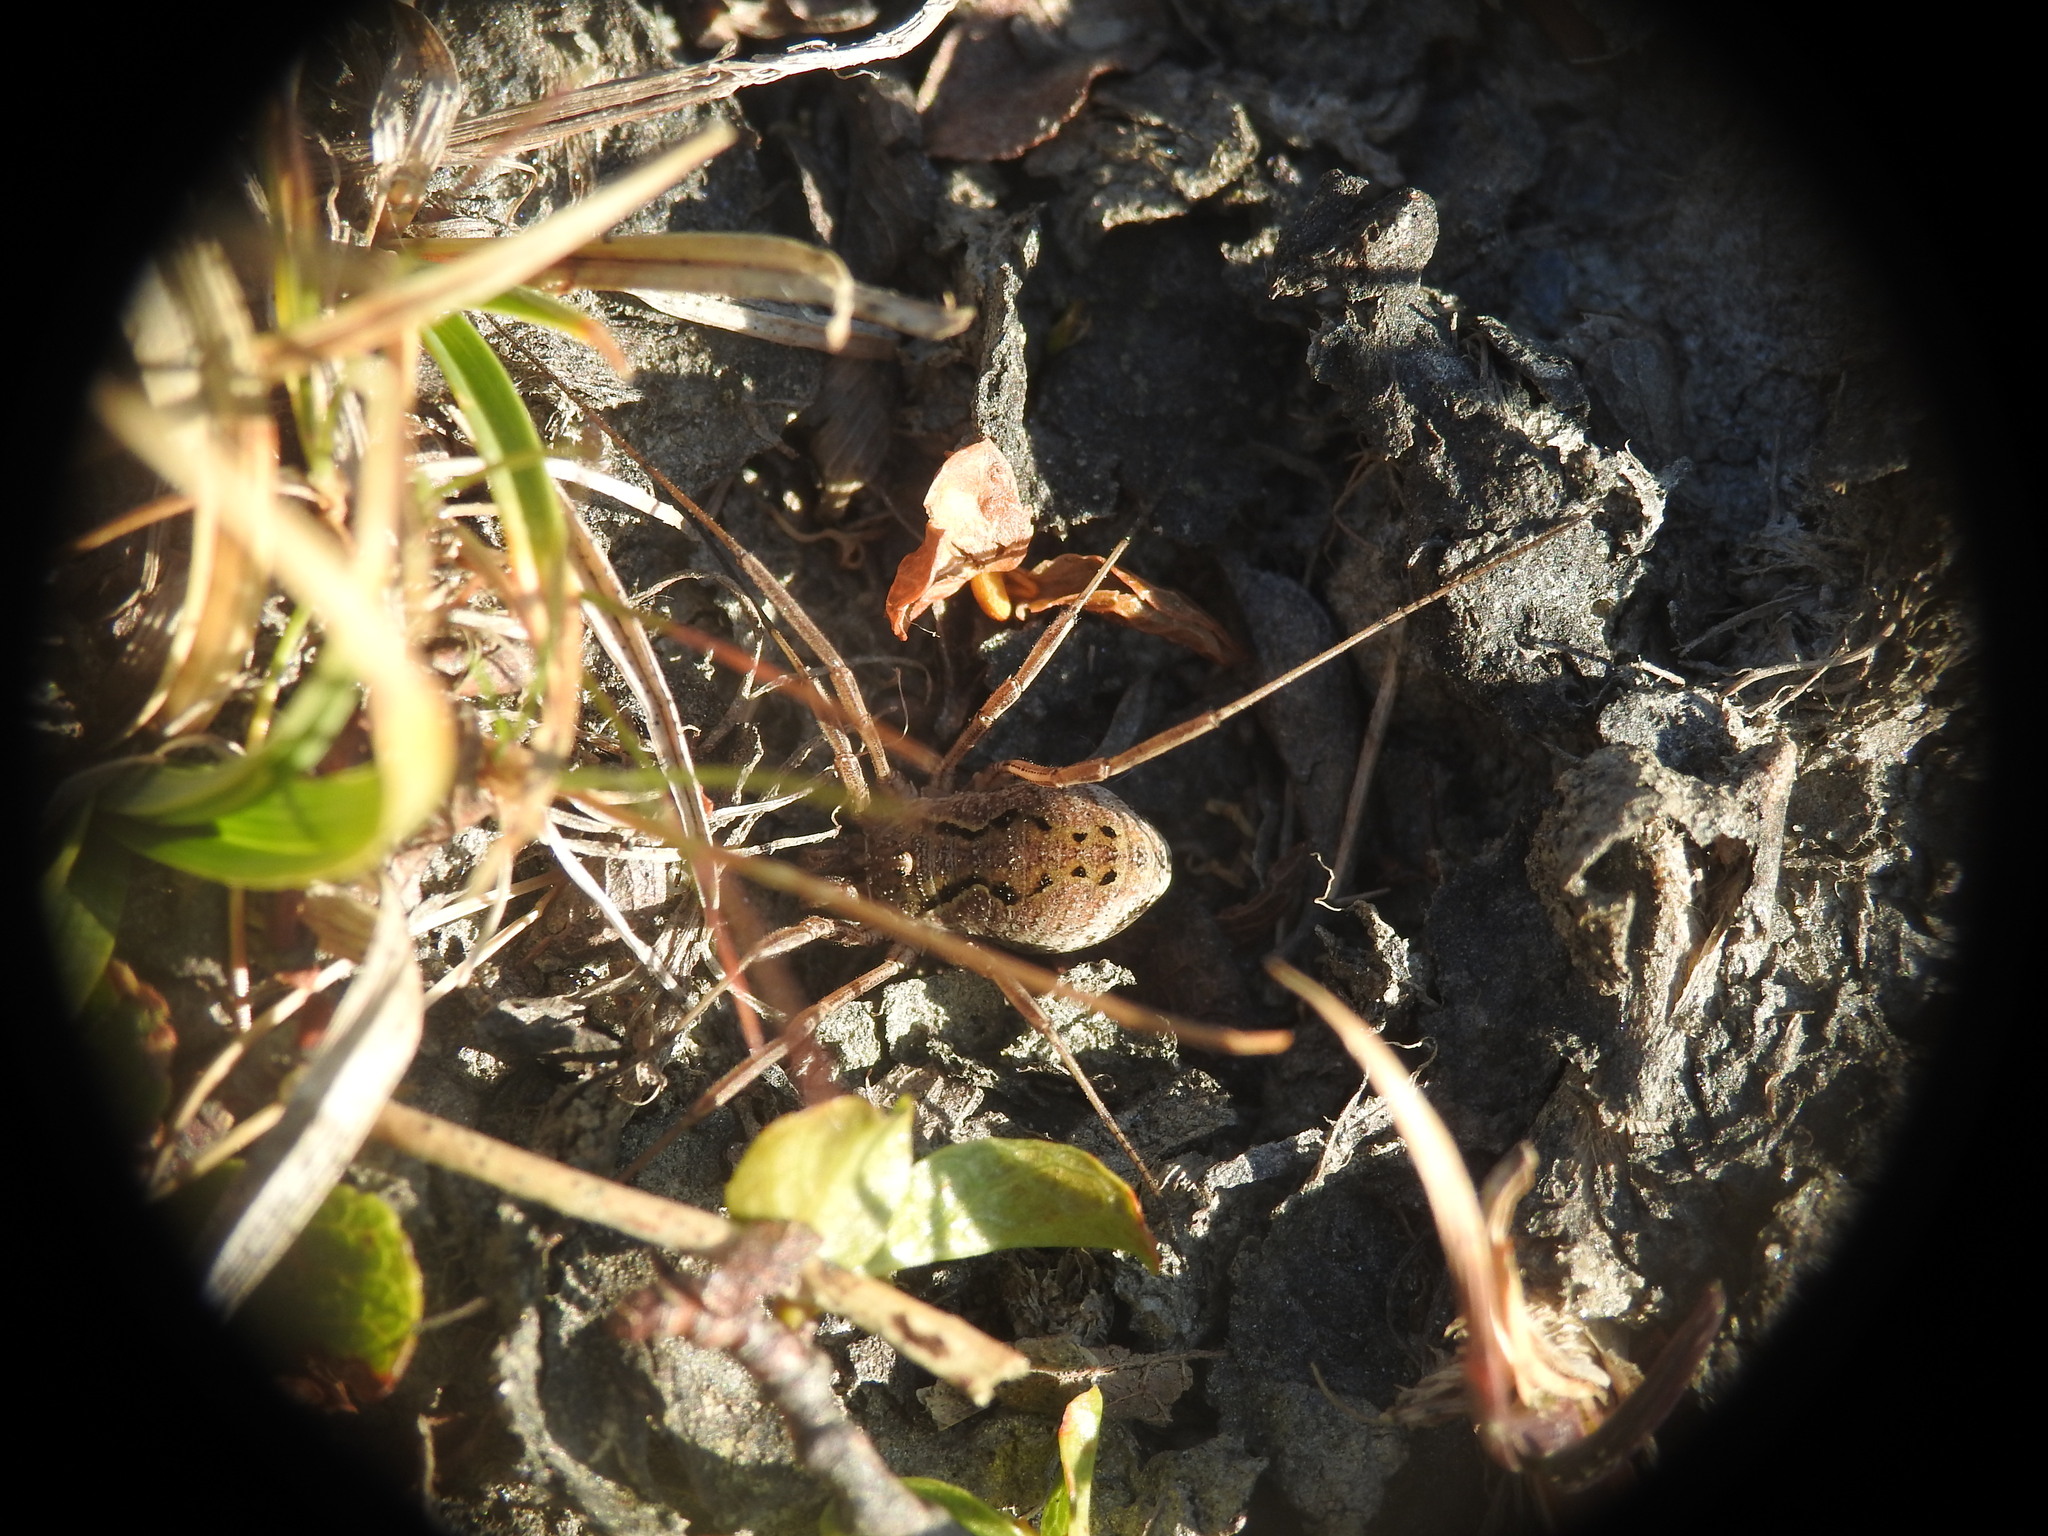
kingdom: Animalia
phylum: Arthropoda
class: Arachnida
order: Opiliones
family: Phalangiidae
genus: Mitopus
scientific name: Mitopus morio
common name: Saddleback harvestman
